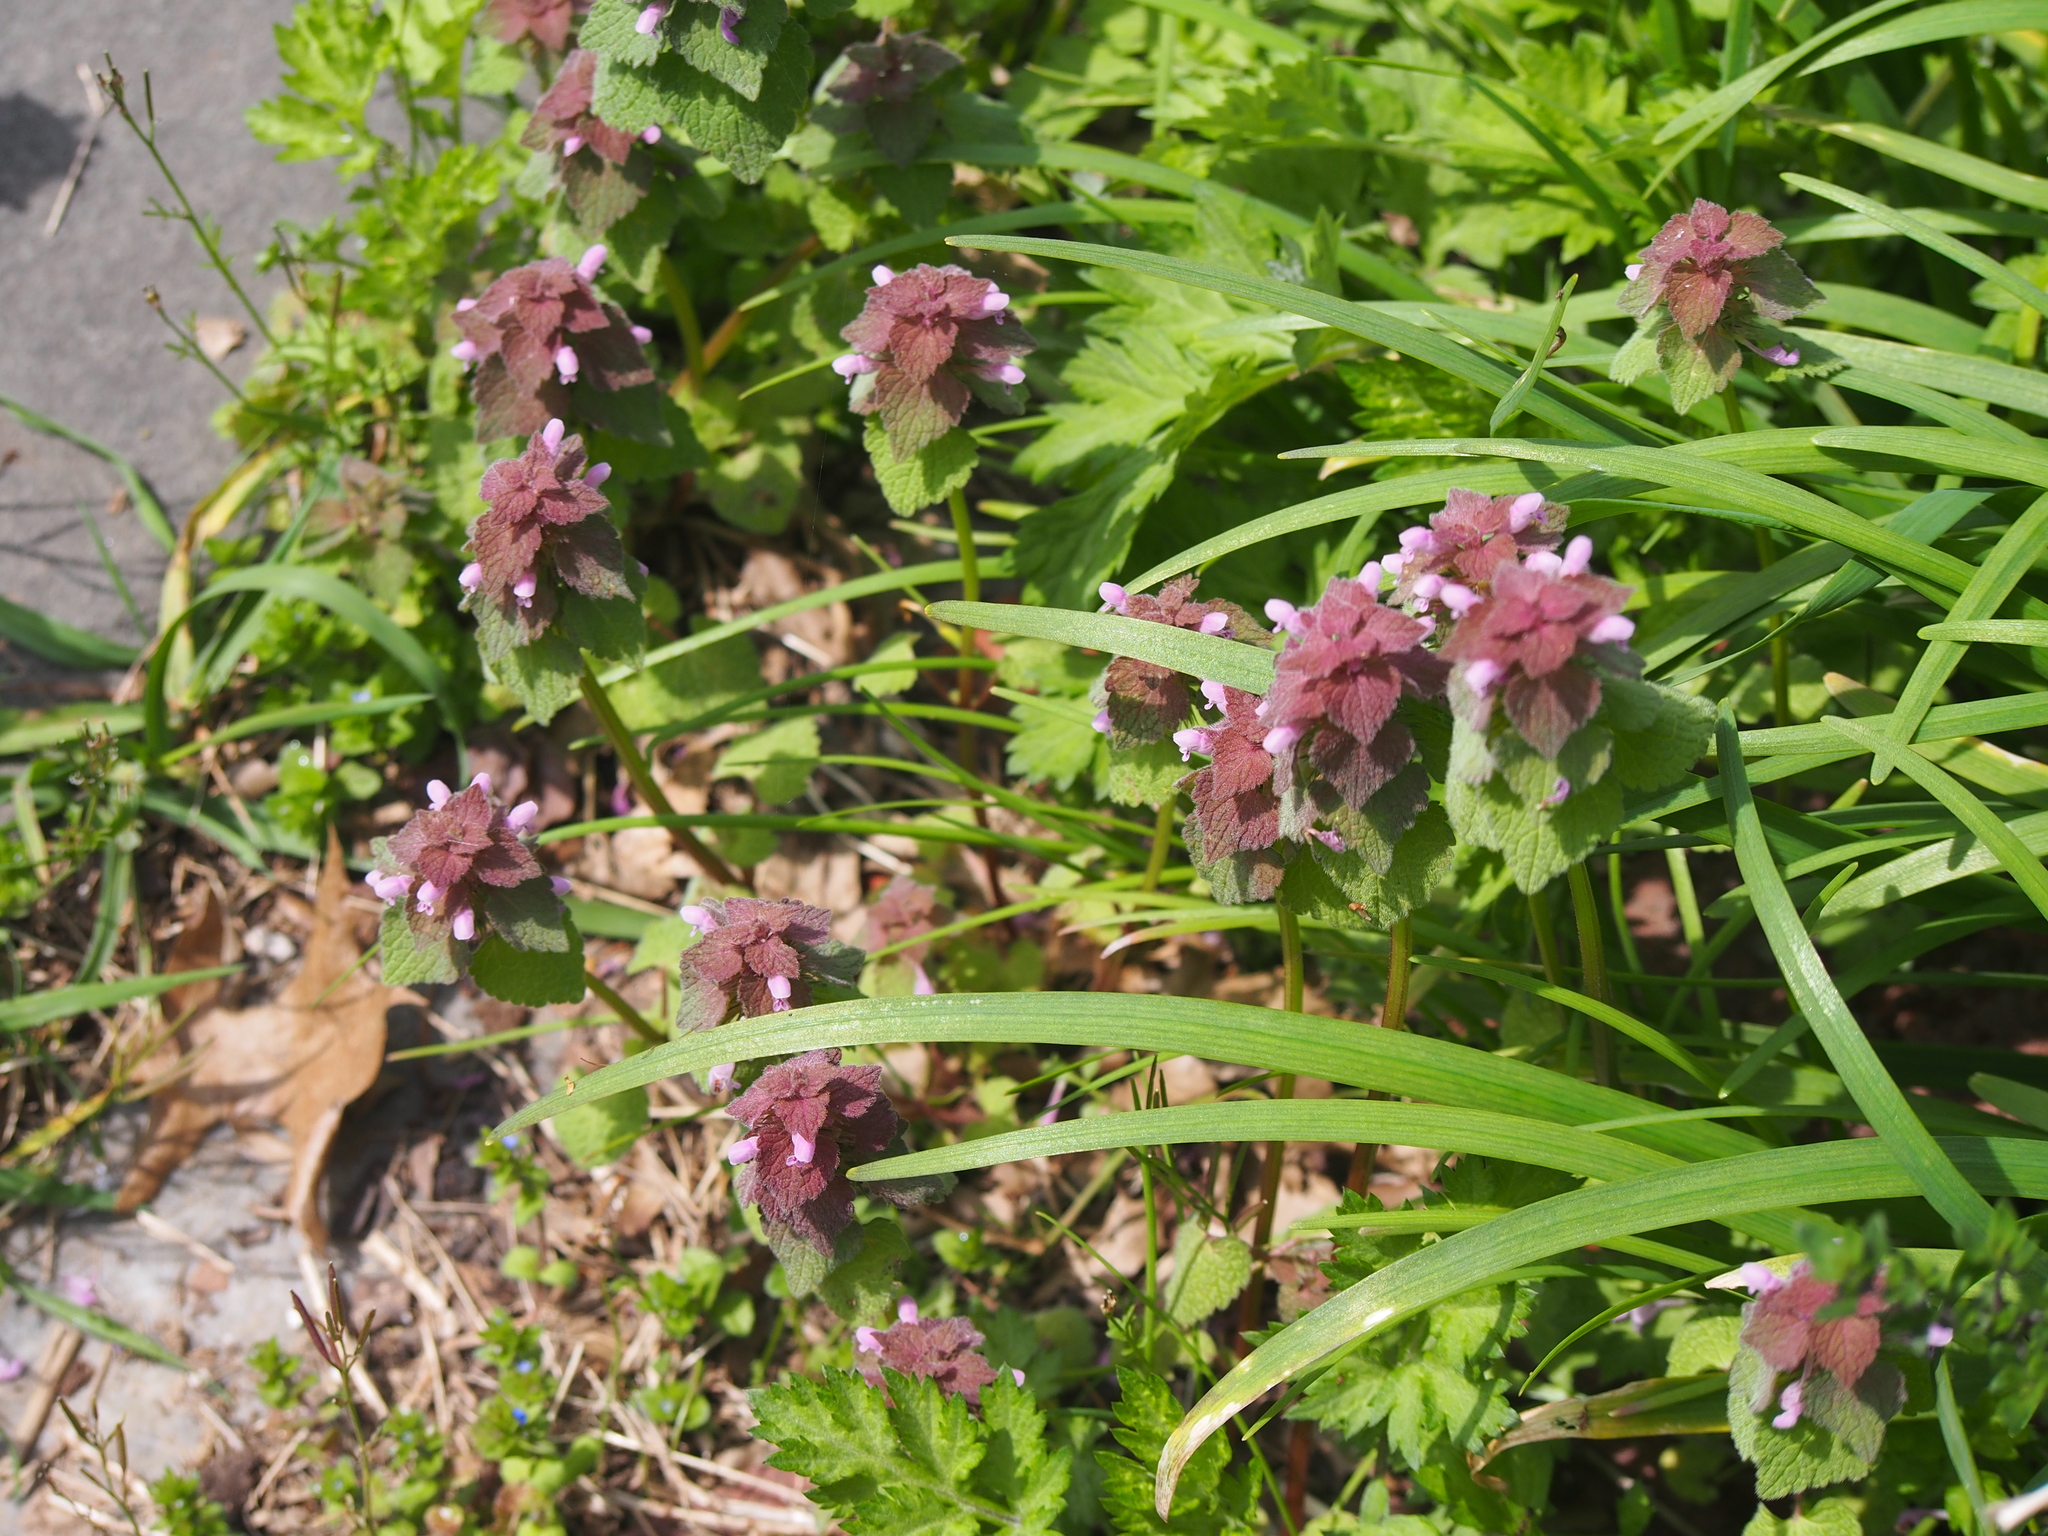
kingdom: Plantae
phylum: Tracheophyta
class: Magnoliopsida
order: Lamiales
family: Lamiaceae
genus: Lamium
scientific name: Lamium purpureum
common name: Red dead-nettle
